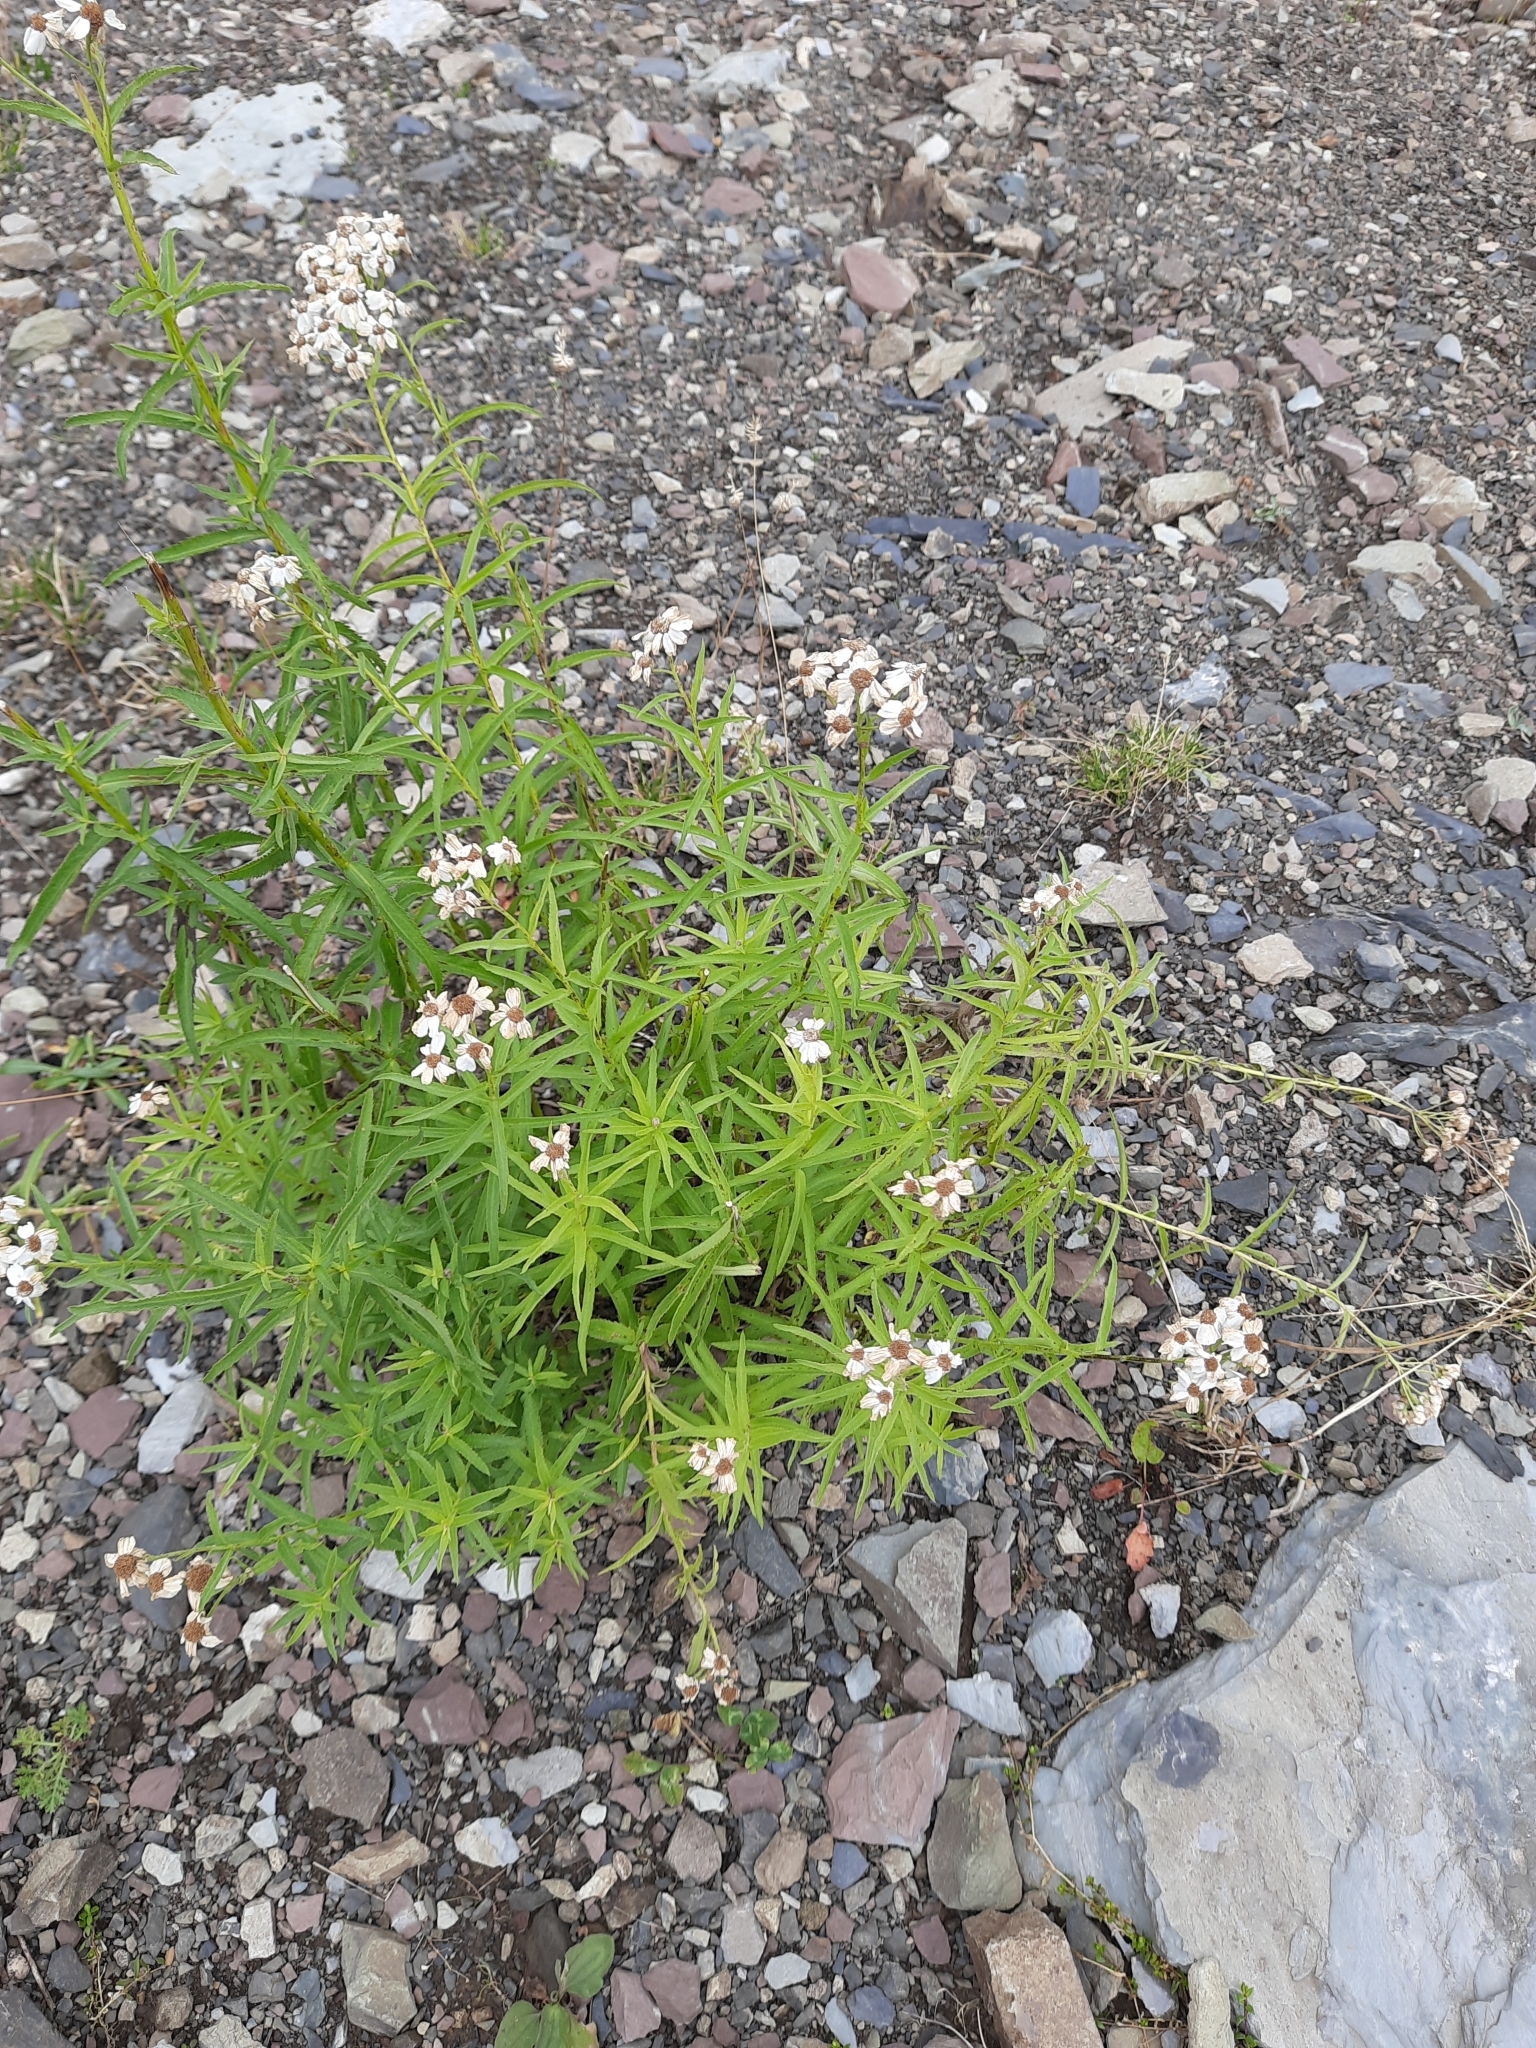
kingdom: Plantae
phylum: Tracheophyta
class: Magnoliopsida
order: Asterales
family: Asteraceae
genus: Achillea
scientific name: Achillea biserrata
